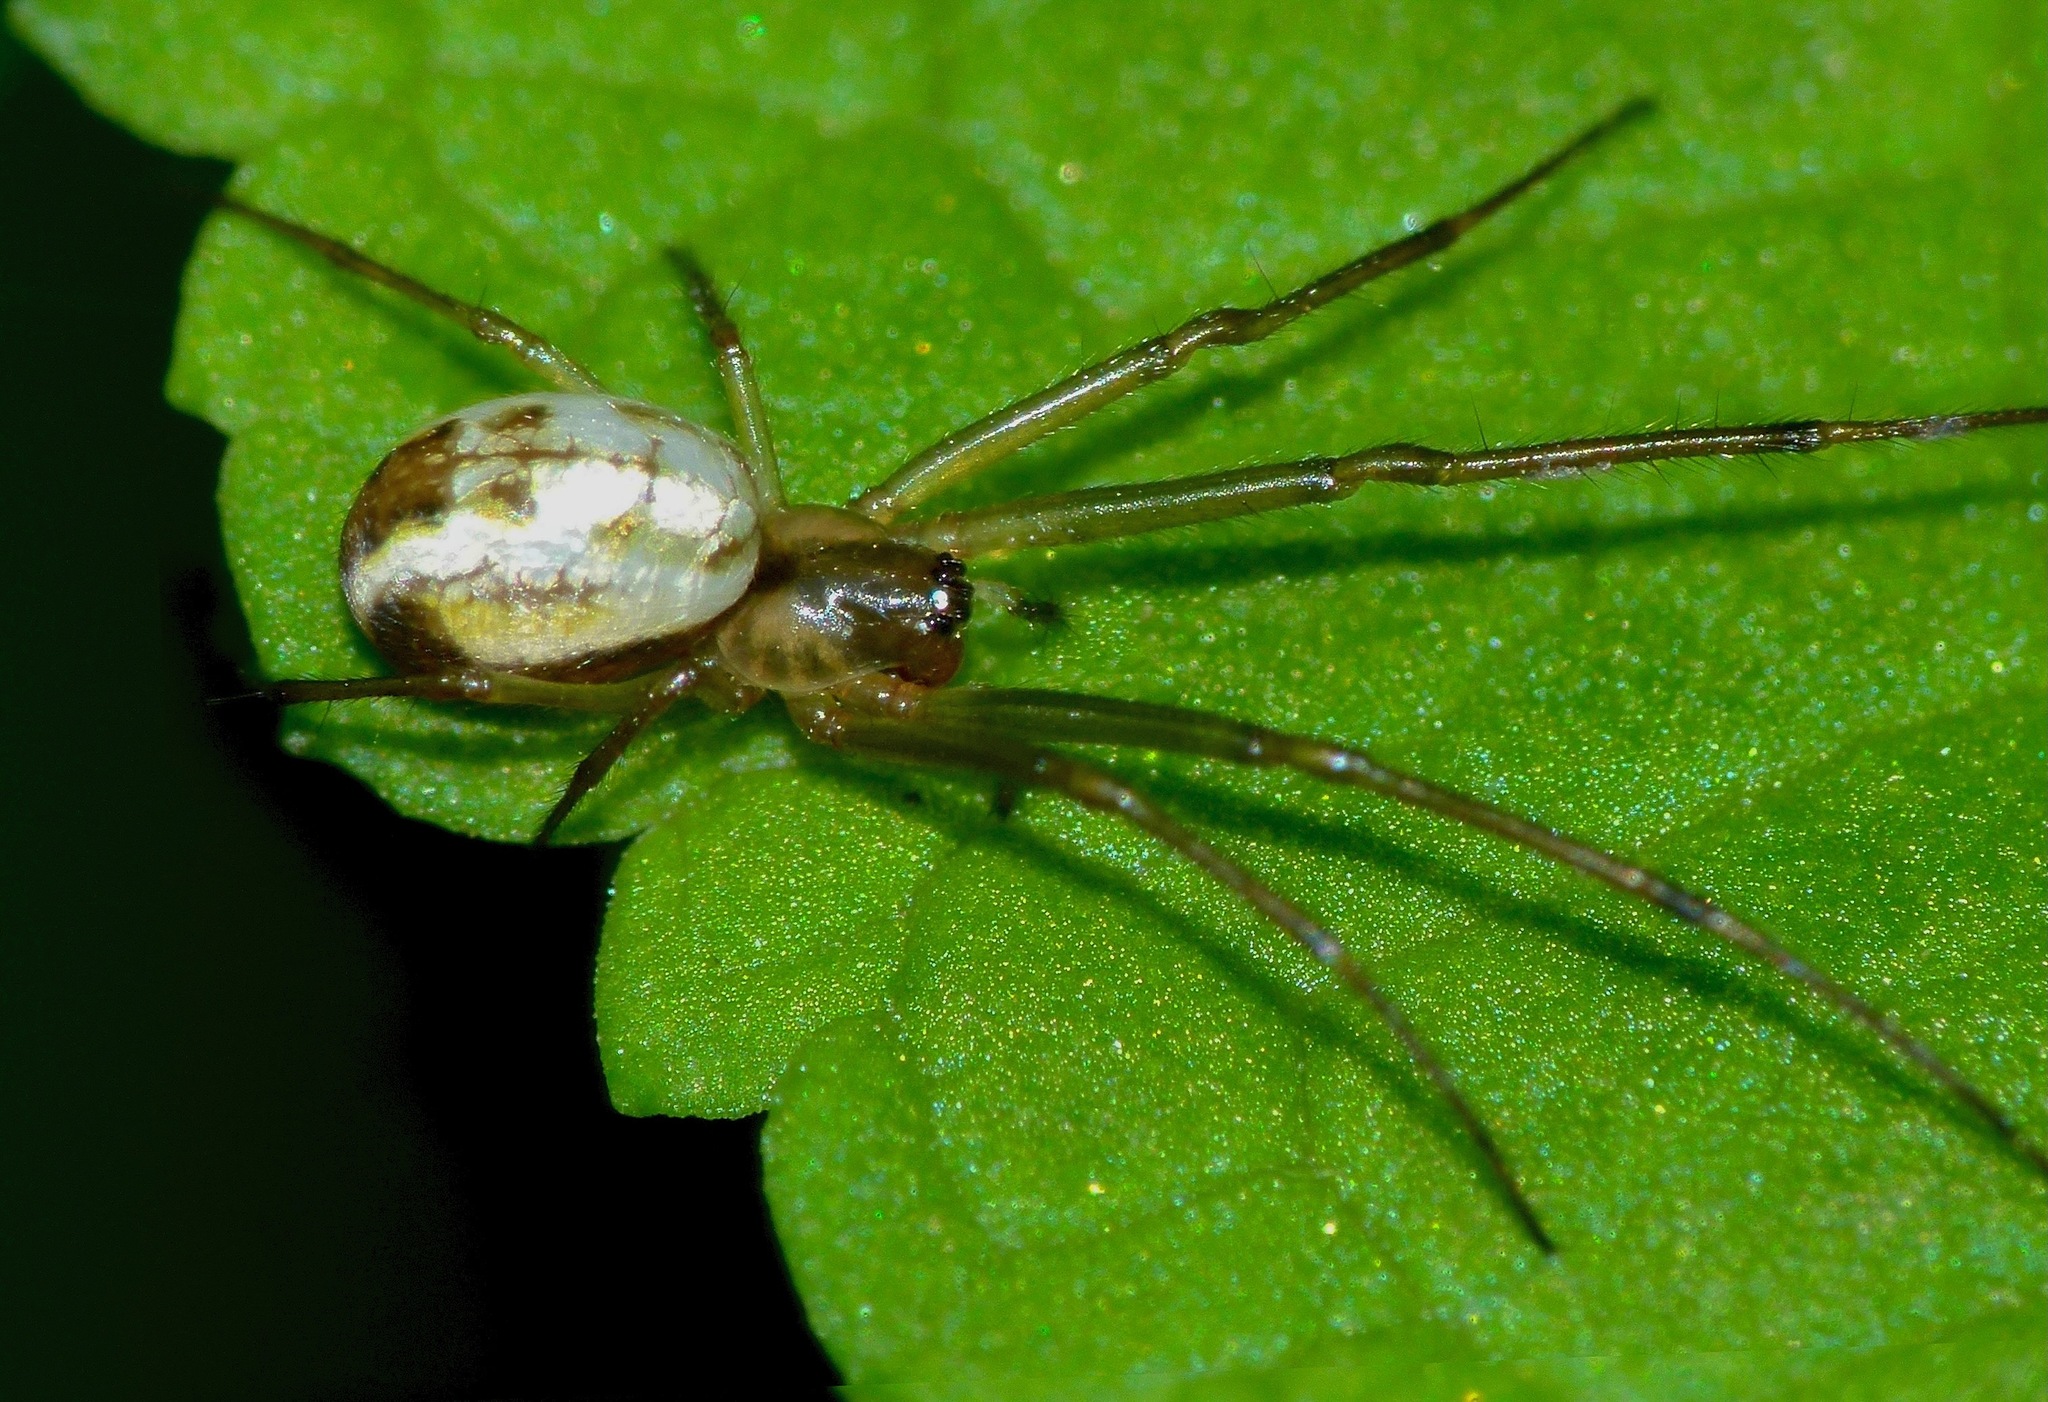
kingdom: Animalia
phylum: Arthropoda
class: Arachnida
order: Araneae
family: Tetragnathidae
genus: Nanometa
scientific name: Nanometa forsteri
